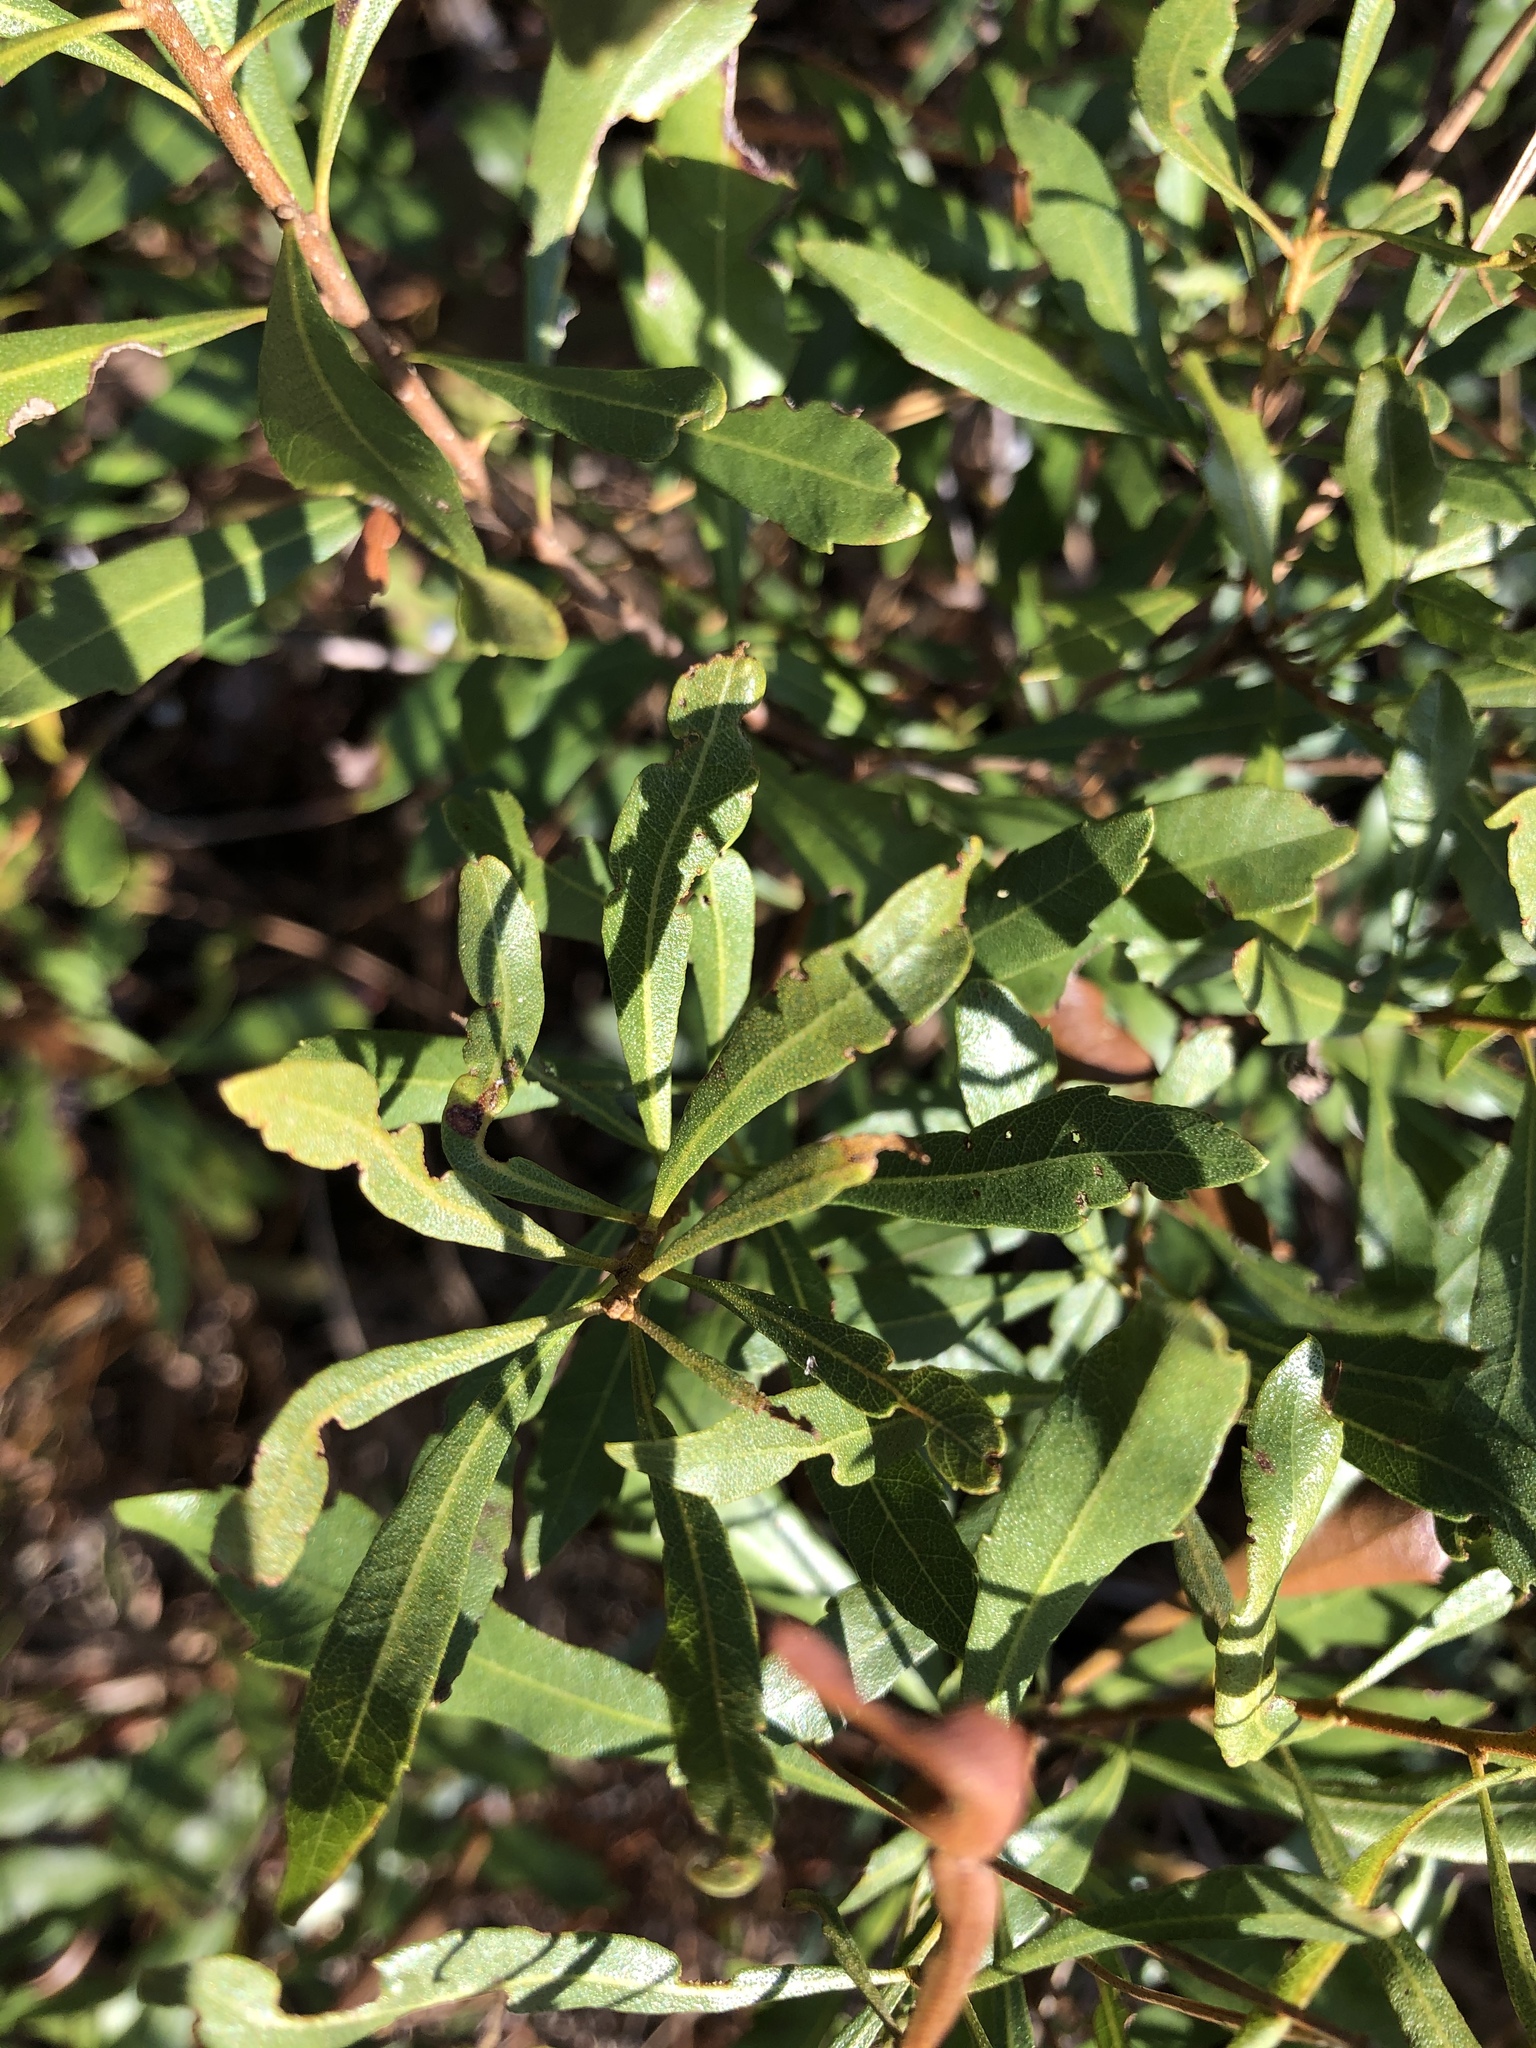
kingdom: Plantae
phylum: Tracheophyta
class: Magnoliopsida
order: Fagales
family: Myricaceae
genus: Morella
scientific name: Morella cerifera
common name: Wax myrtle
